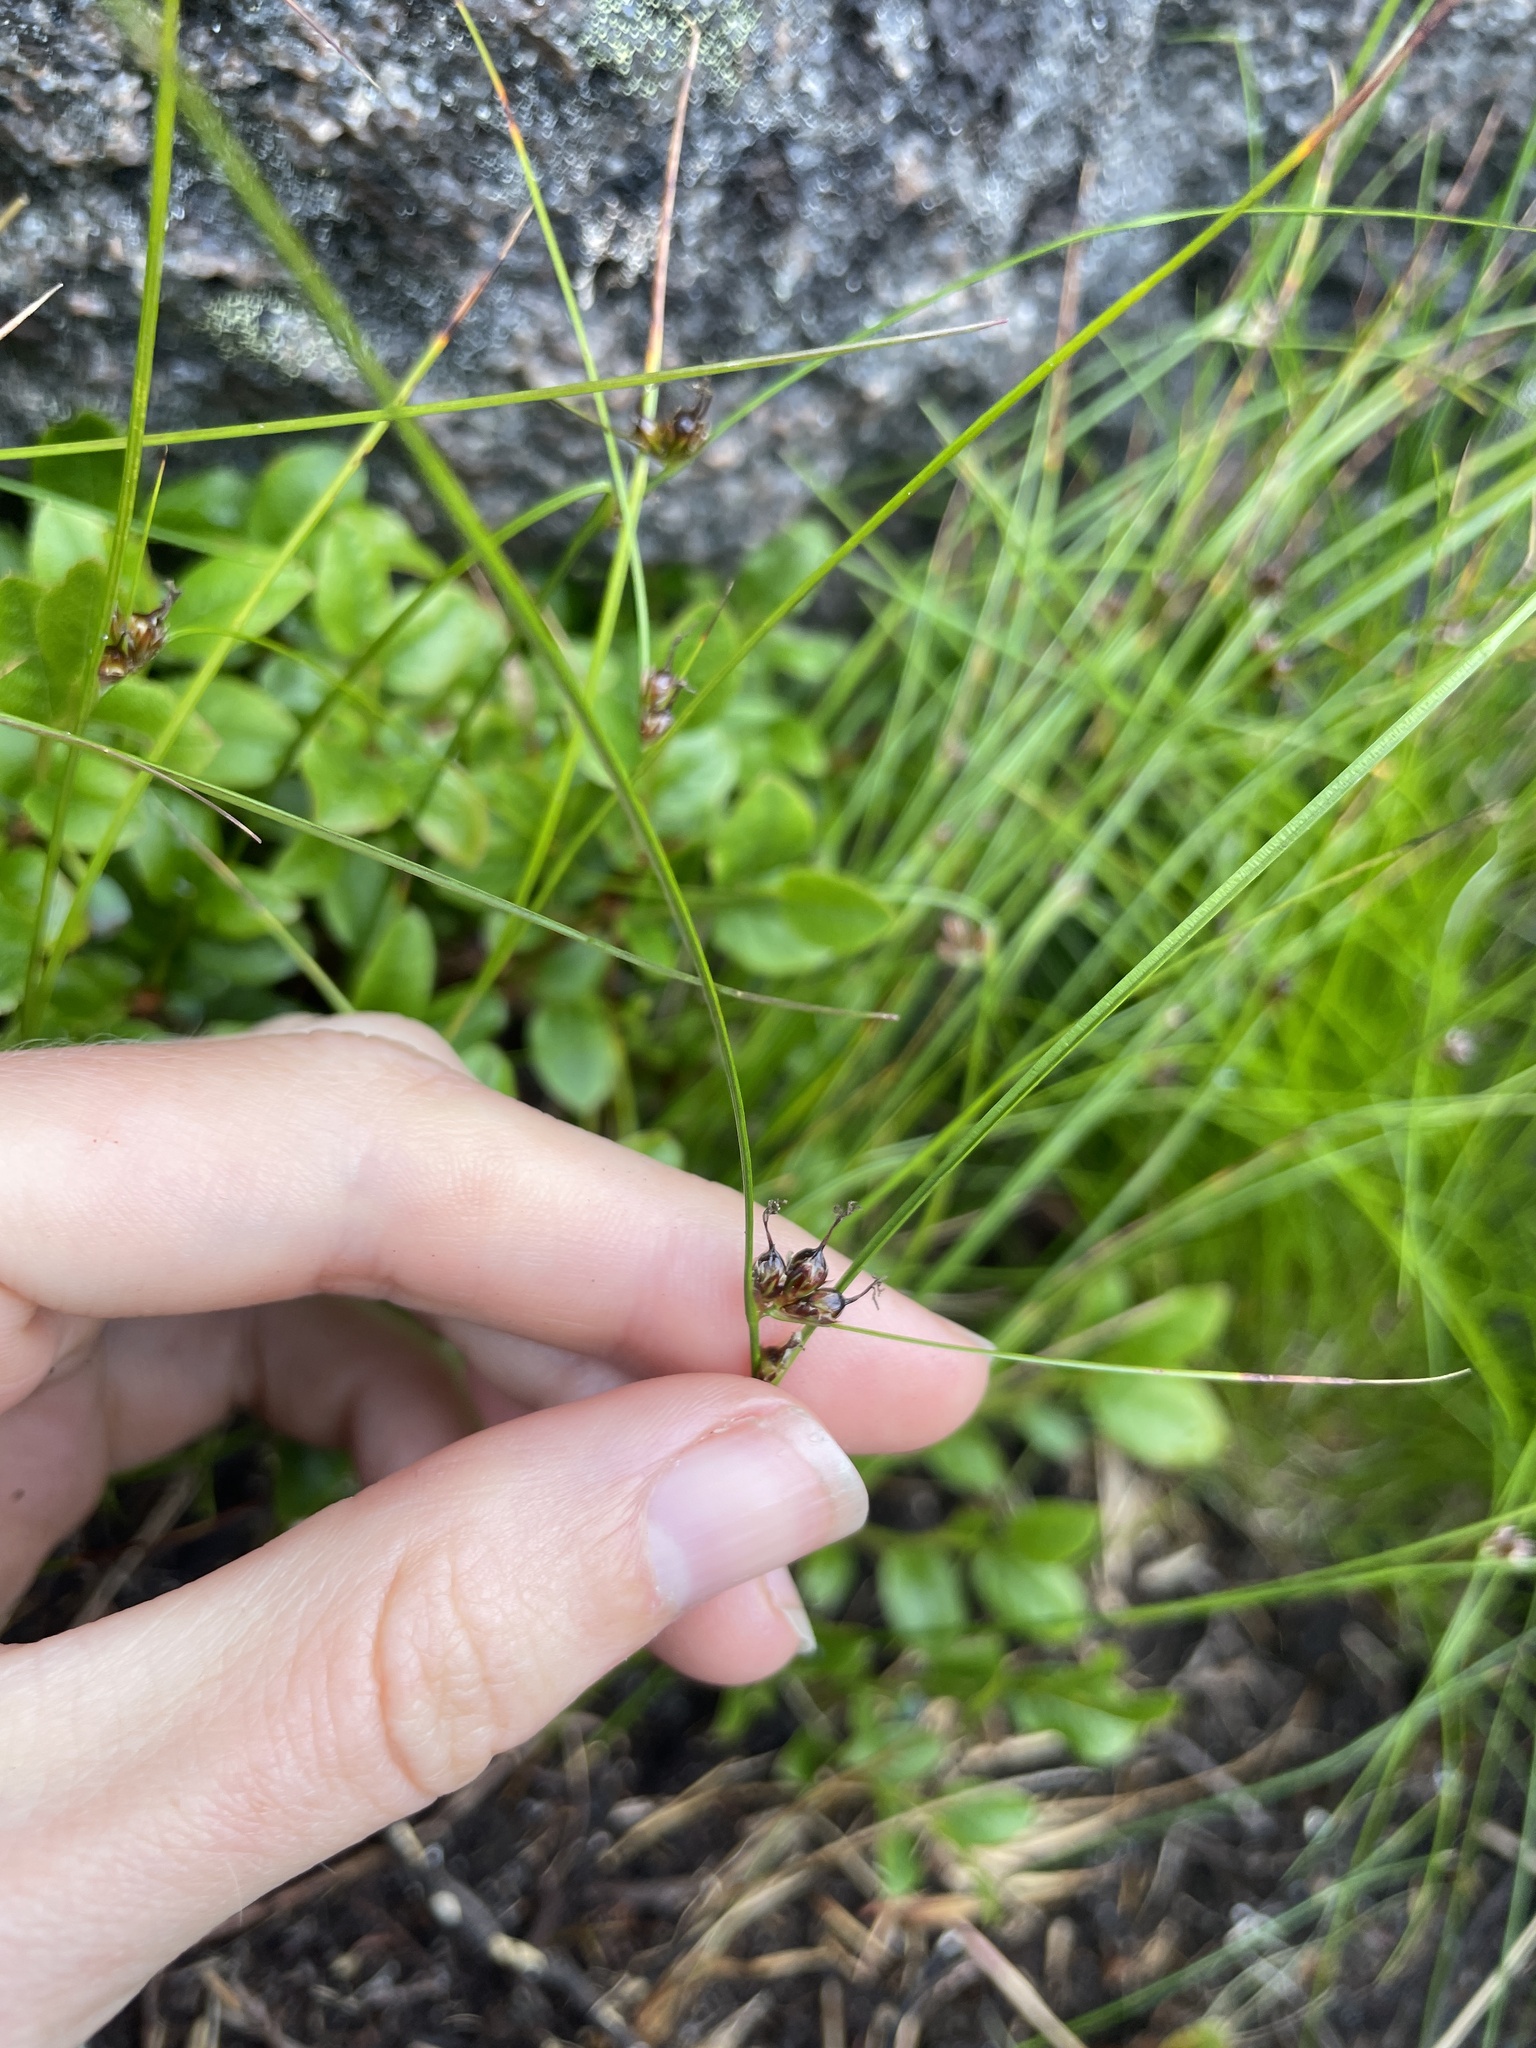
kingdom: Plantae
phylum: Tracheophyta
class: Liliopsida
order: Poales
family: Juncaceae
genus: Oreojuncus
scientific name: Oreojuncus trifidus
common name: Highland rush
